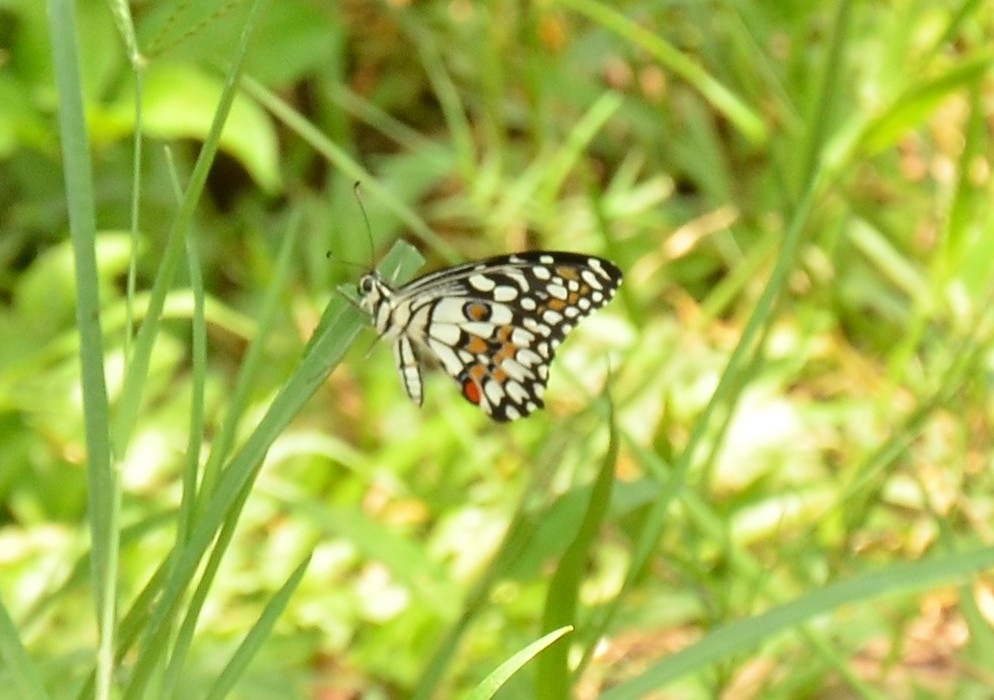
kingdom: Animalia
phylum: Arthropoda
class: Insecta
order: Lepidoptera
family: Papilionidae
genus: Papilio
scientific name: Papilio demoleus
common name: Lime butterfly
